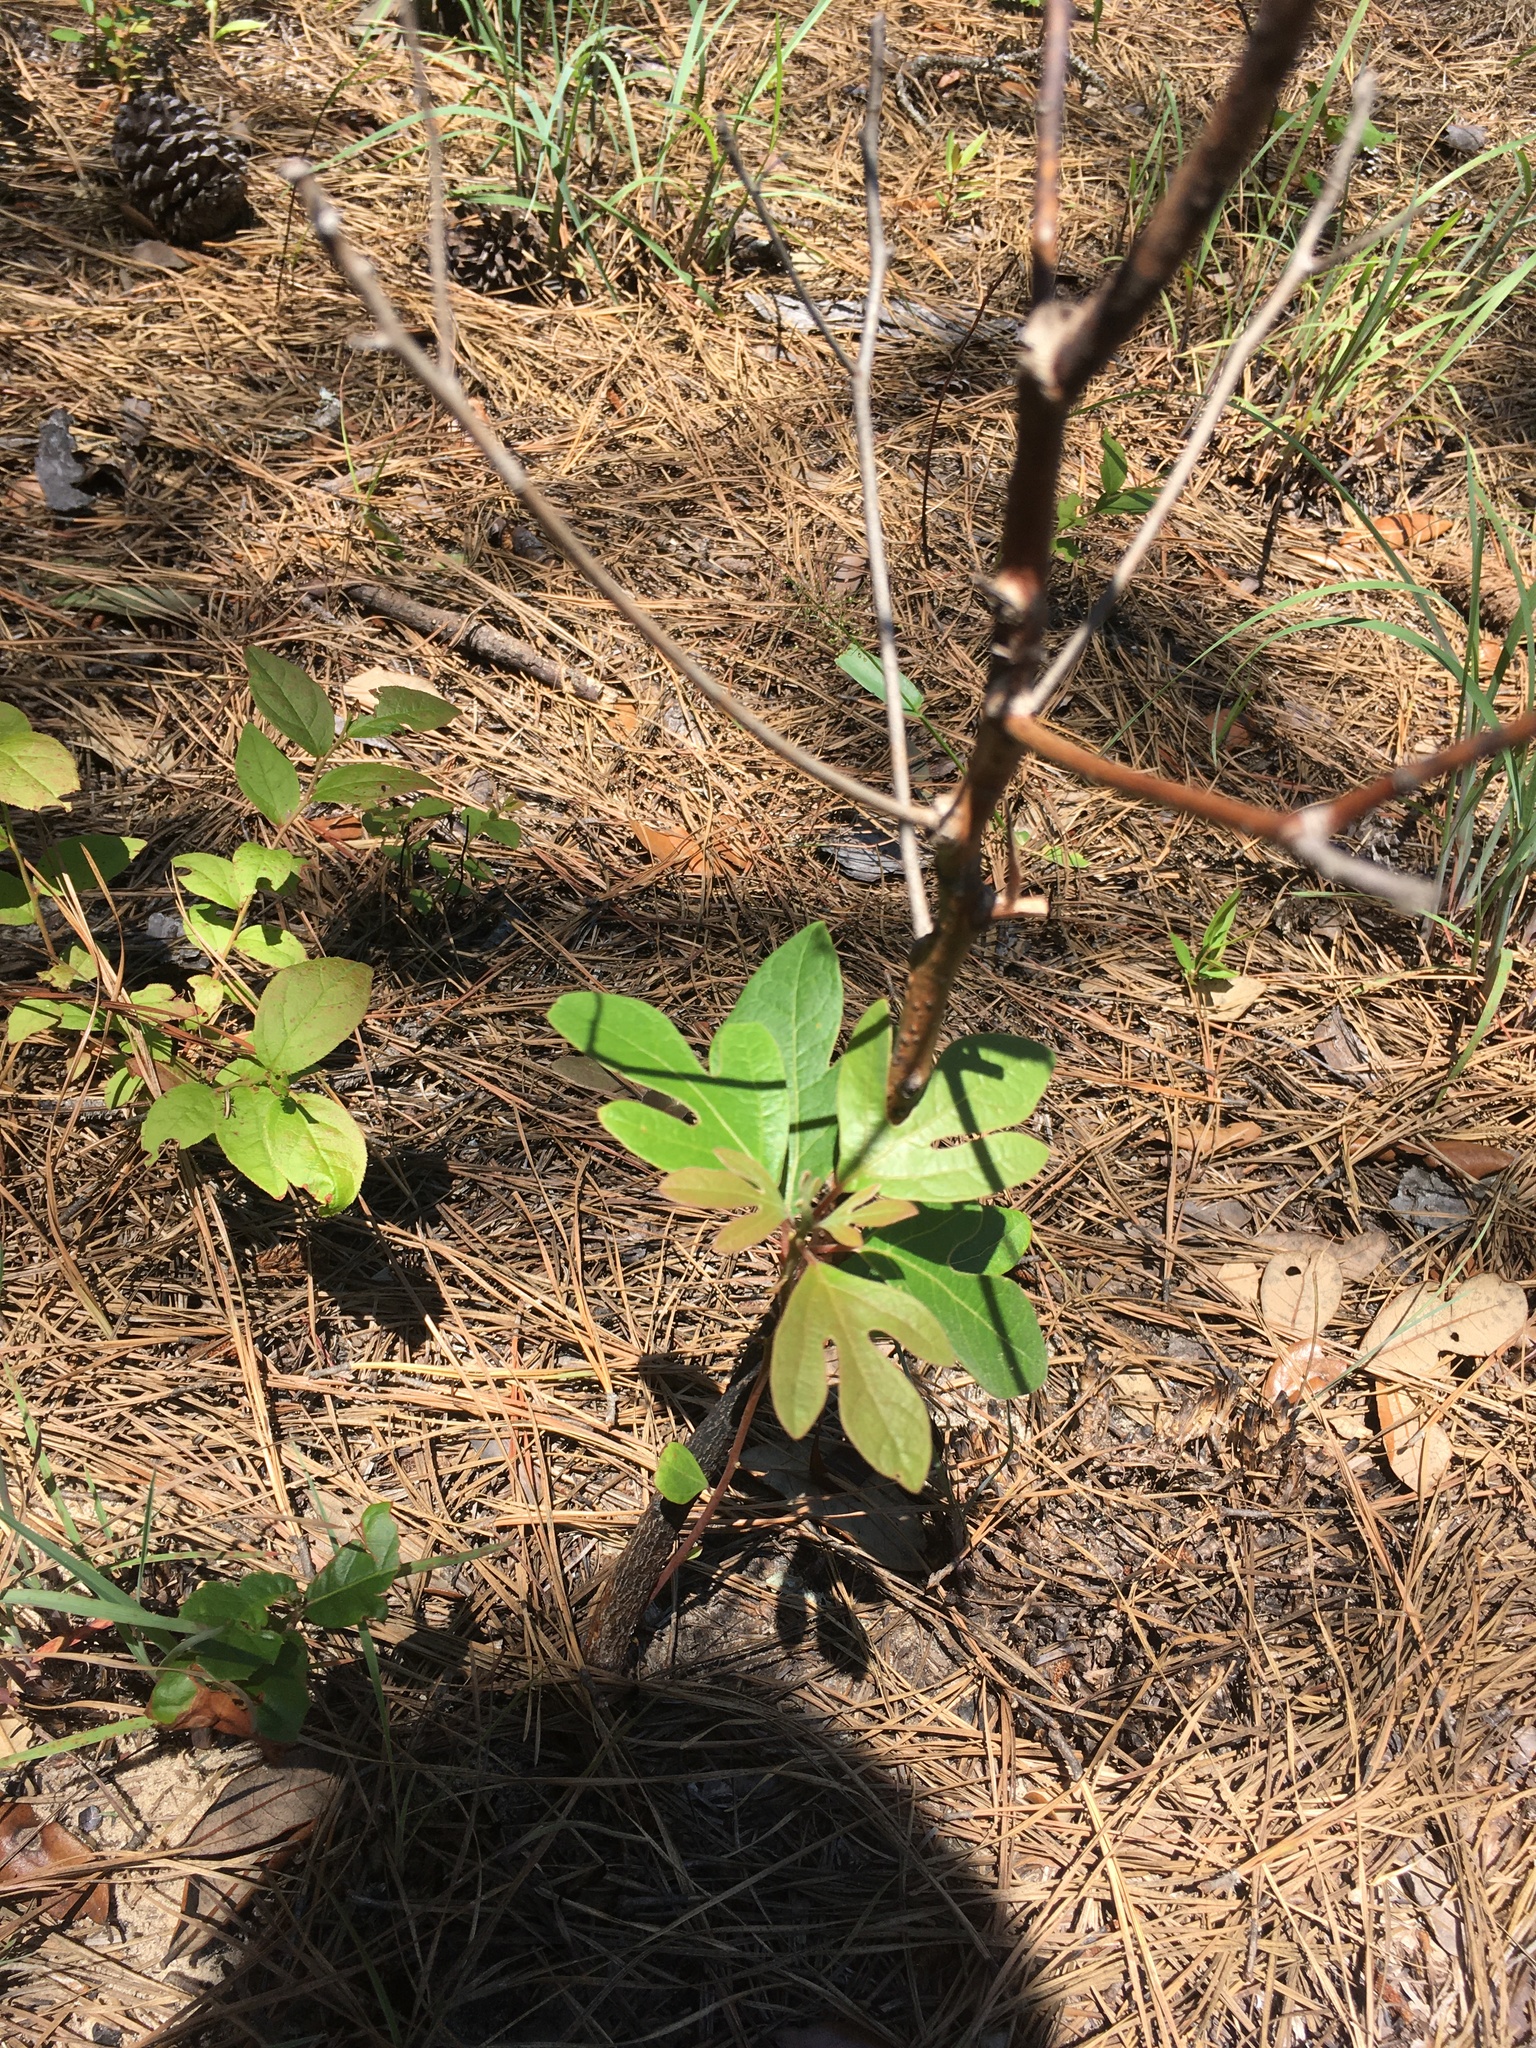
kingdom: Plantae
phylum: Tracheophyta
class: Magnoliopsida
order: Laurales
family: Lauraceae
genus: Sassafras
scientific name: Sassafras albidum
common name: Sassafras
